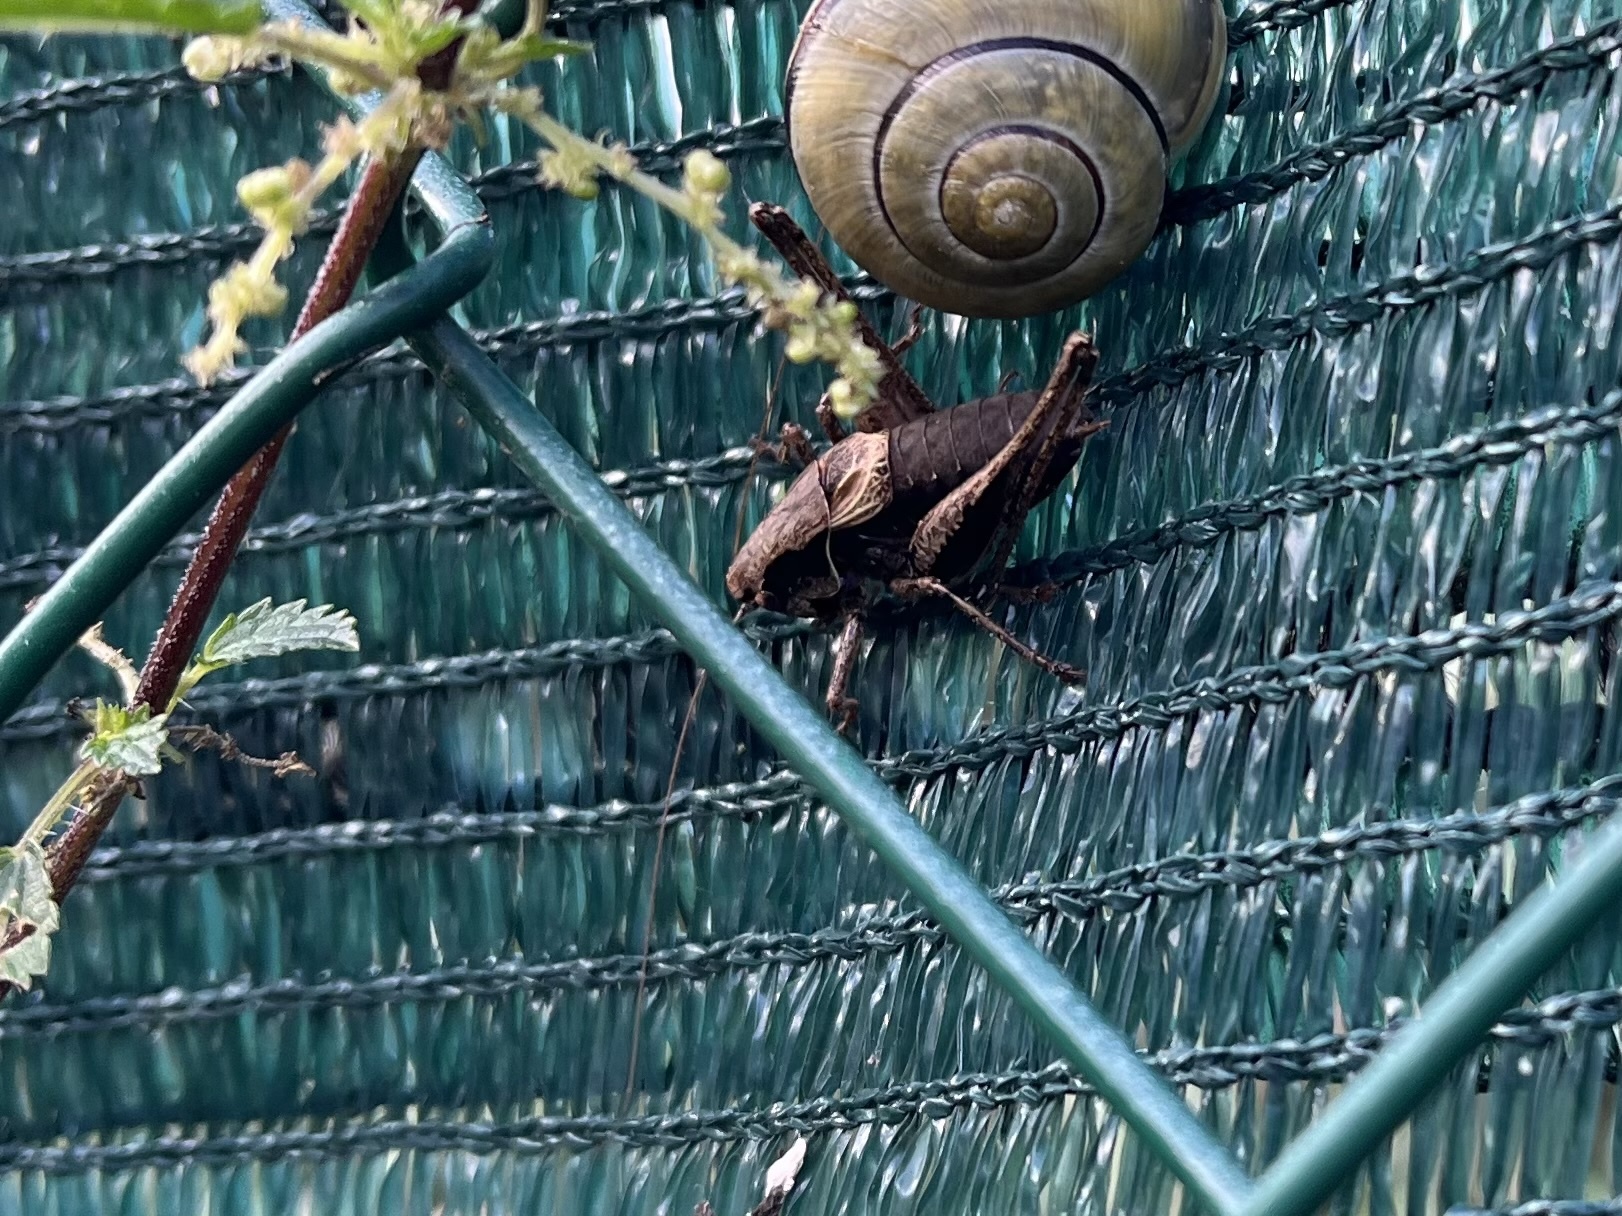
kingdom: Animalia
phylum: Arthropoda
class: Insecta
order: Orthoptera
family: Tettigoniidae
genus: Pholidoptera
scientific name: Pholidoptera griseoaptera
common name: Dark bush-cricket
